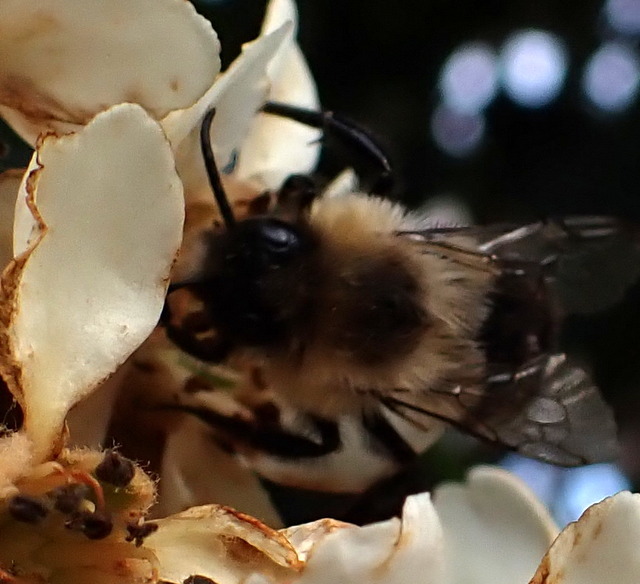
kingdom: Animalia
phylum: Arthropoda
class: Insecta
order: Hymenoptera
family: Apidae
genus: Bombus
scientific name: Bombus impatiens
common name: Common eastern bumble bee
